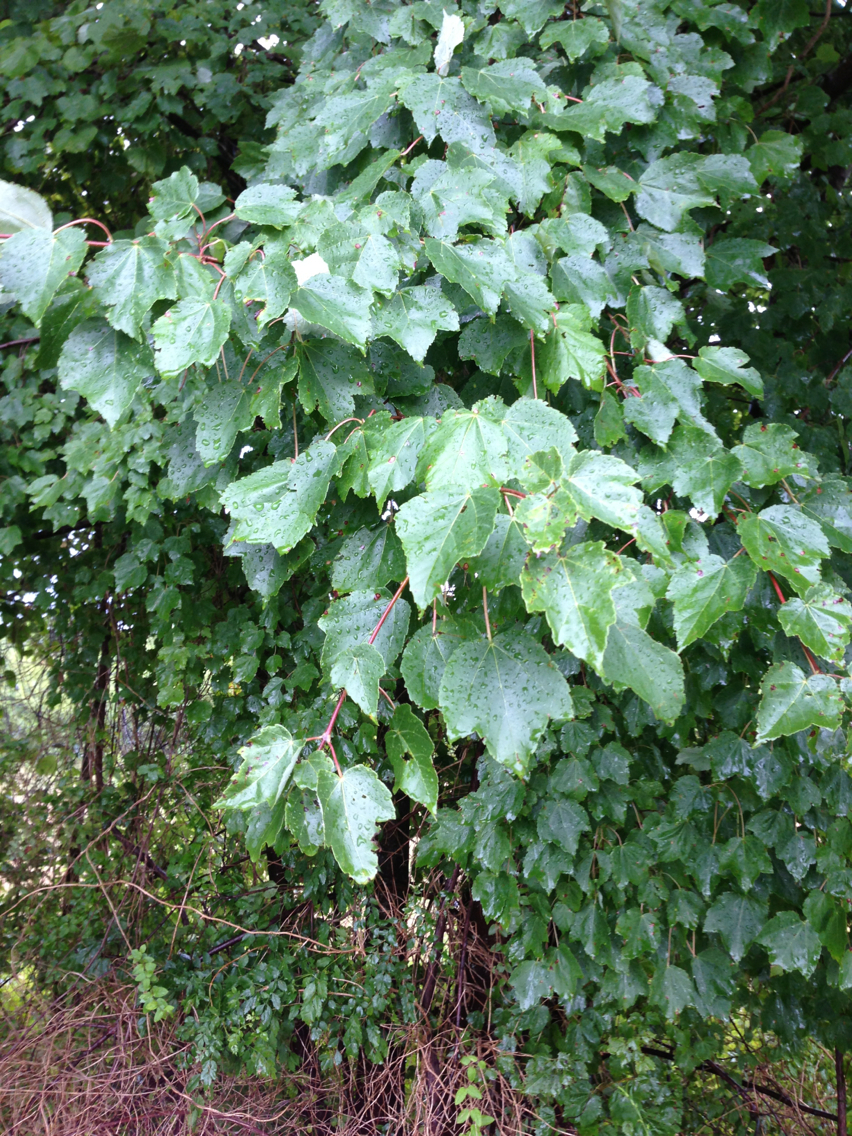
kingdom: Plantae
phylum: Tracheophyta
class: Magnoliopsida
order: Sapindales
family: Sapindaceae
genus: Acer
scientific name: Acer rubrum
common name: Red maple
